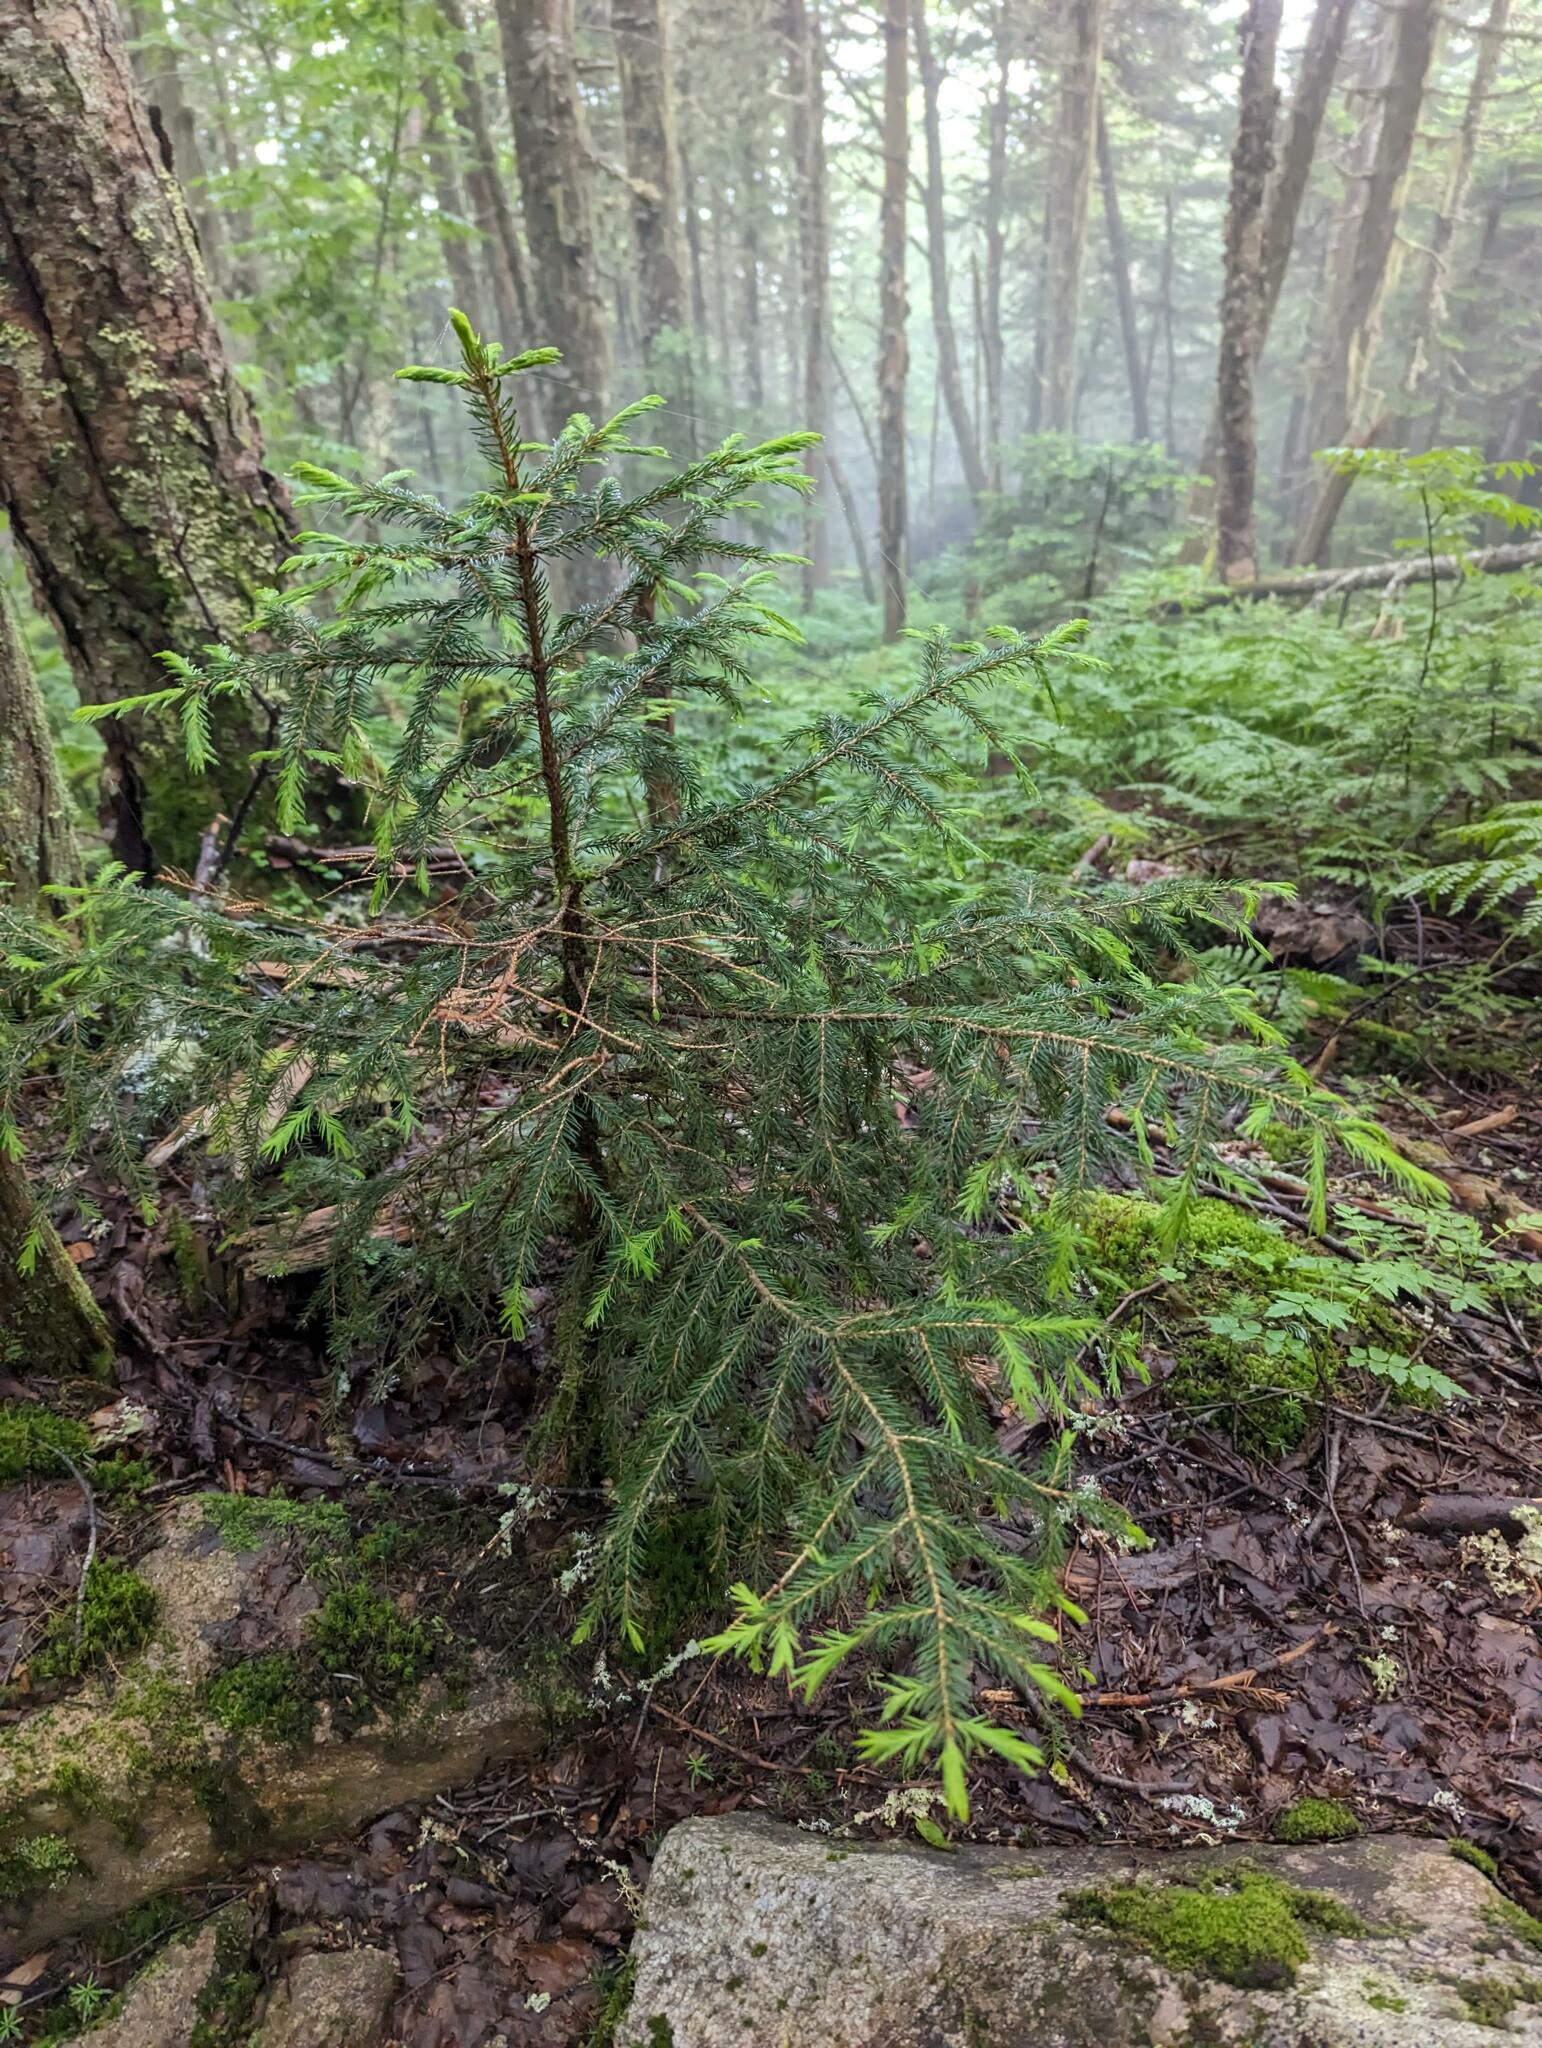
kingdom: Plantae
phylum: Tracheophyta
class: Pinopsida
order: Pinales
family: Pinaceae
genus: Picea
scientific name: Picea rubens
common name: Red spruce
